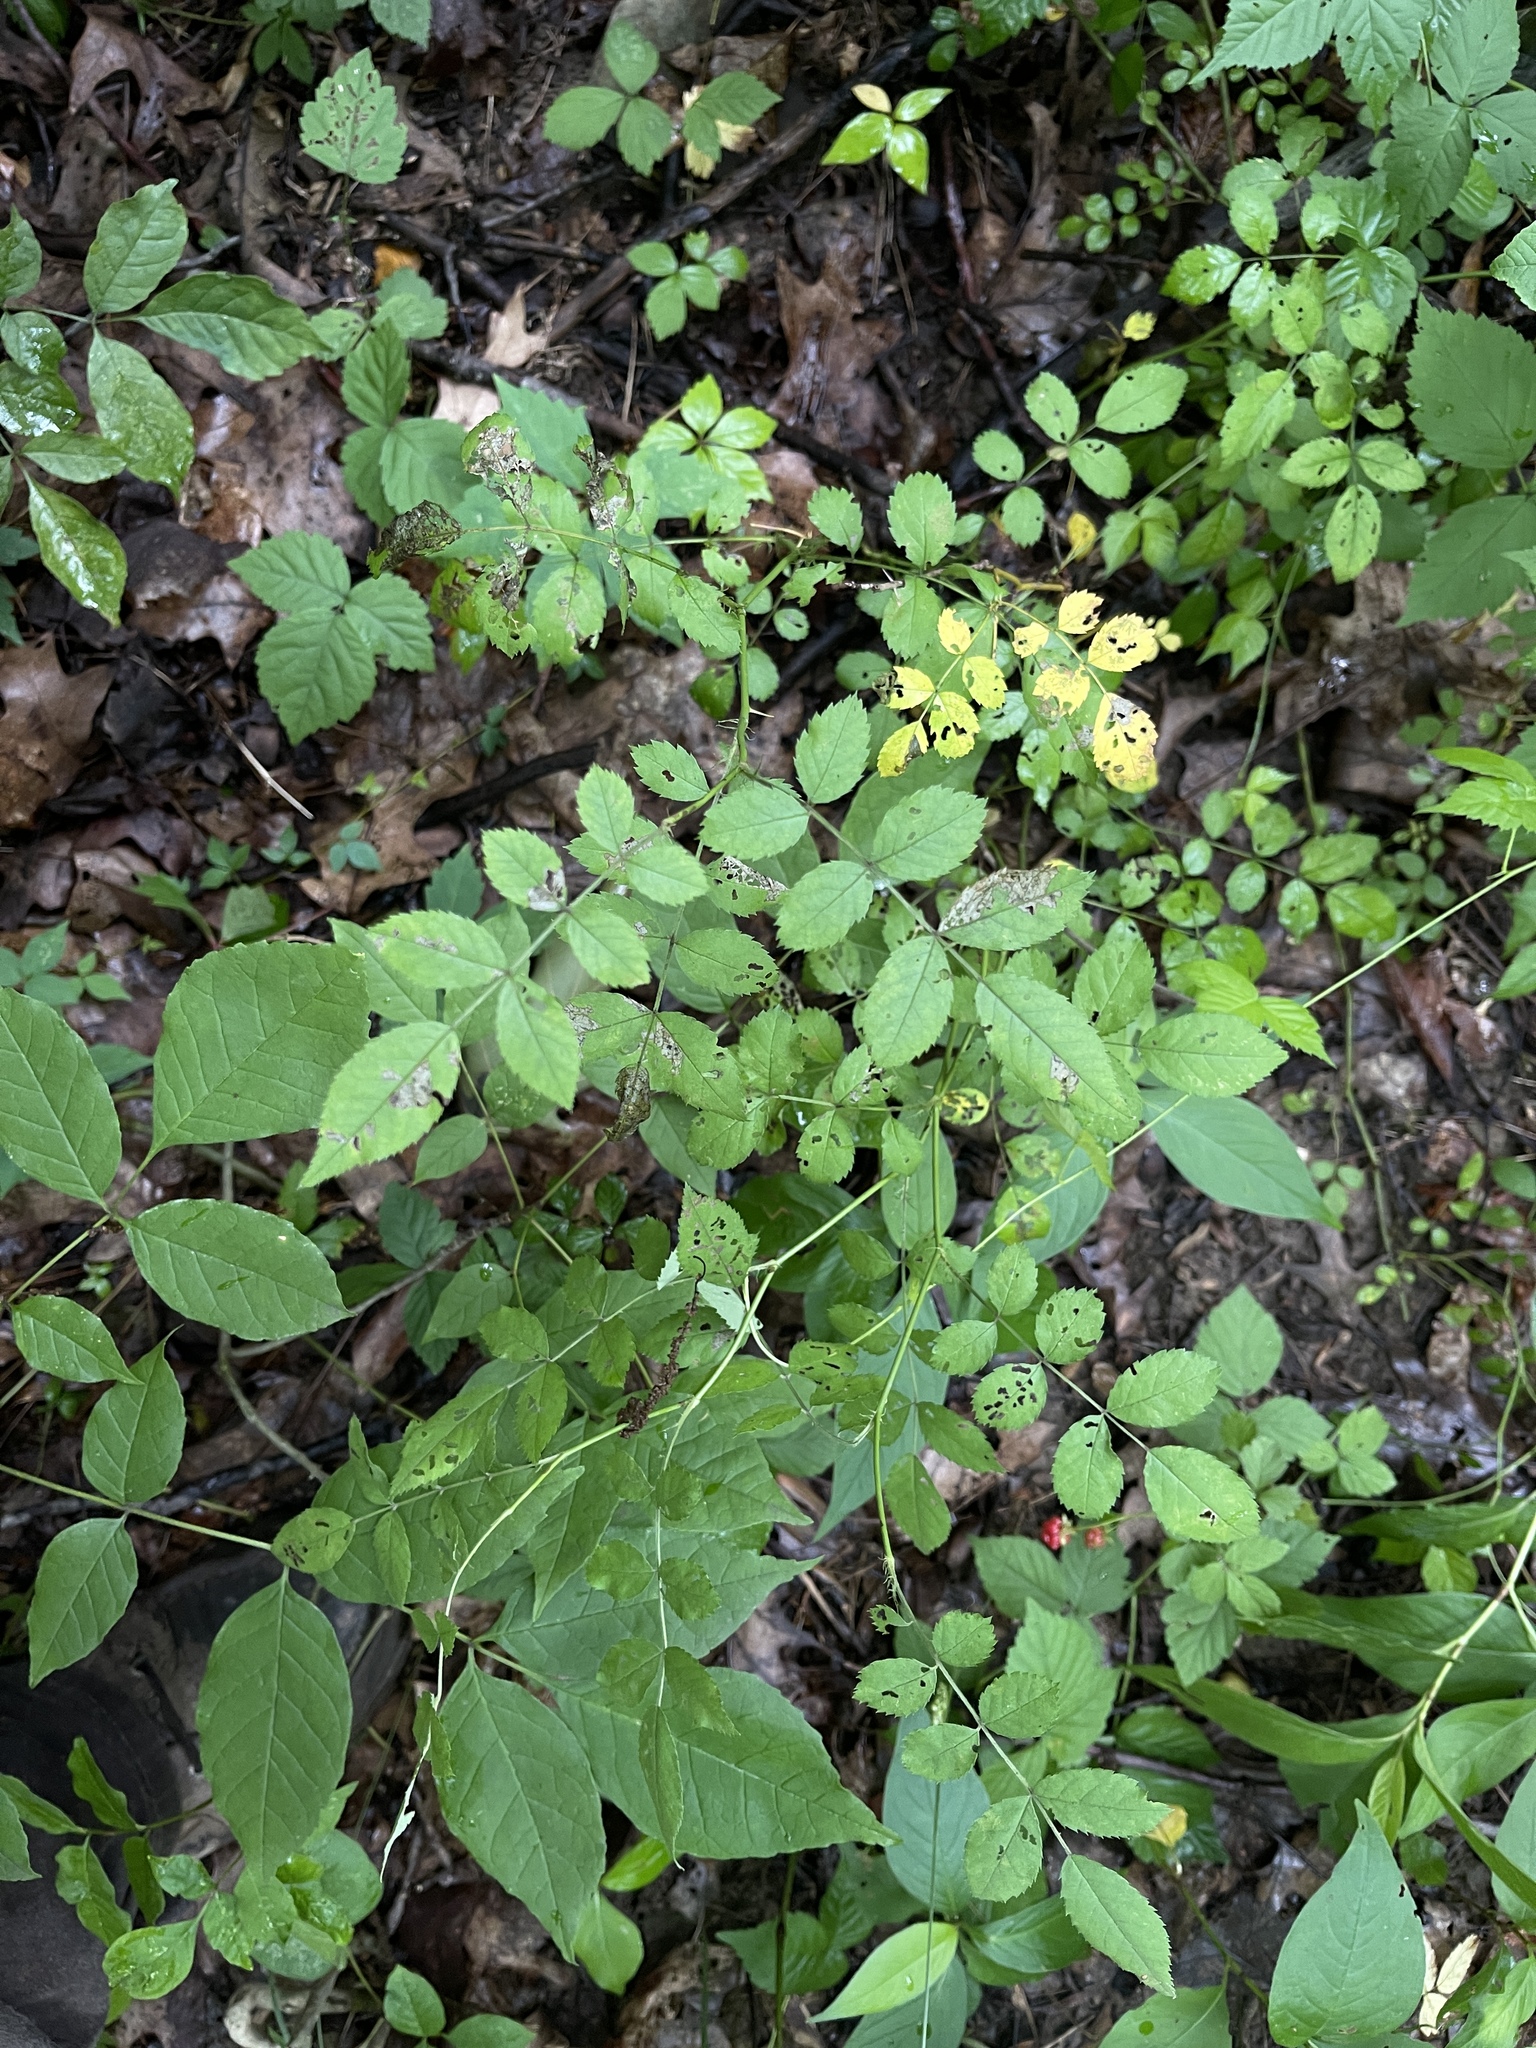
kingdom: Plantae
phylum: Tracheophyta
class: Magnoliopsida
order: Rosales
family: Rosaceae
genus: Rosa
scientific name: Rosa carolina
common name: Pasture rose
